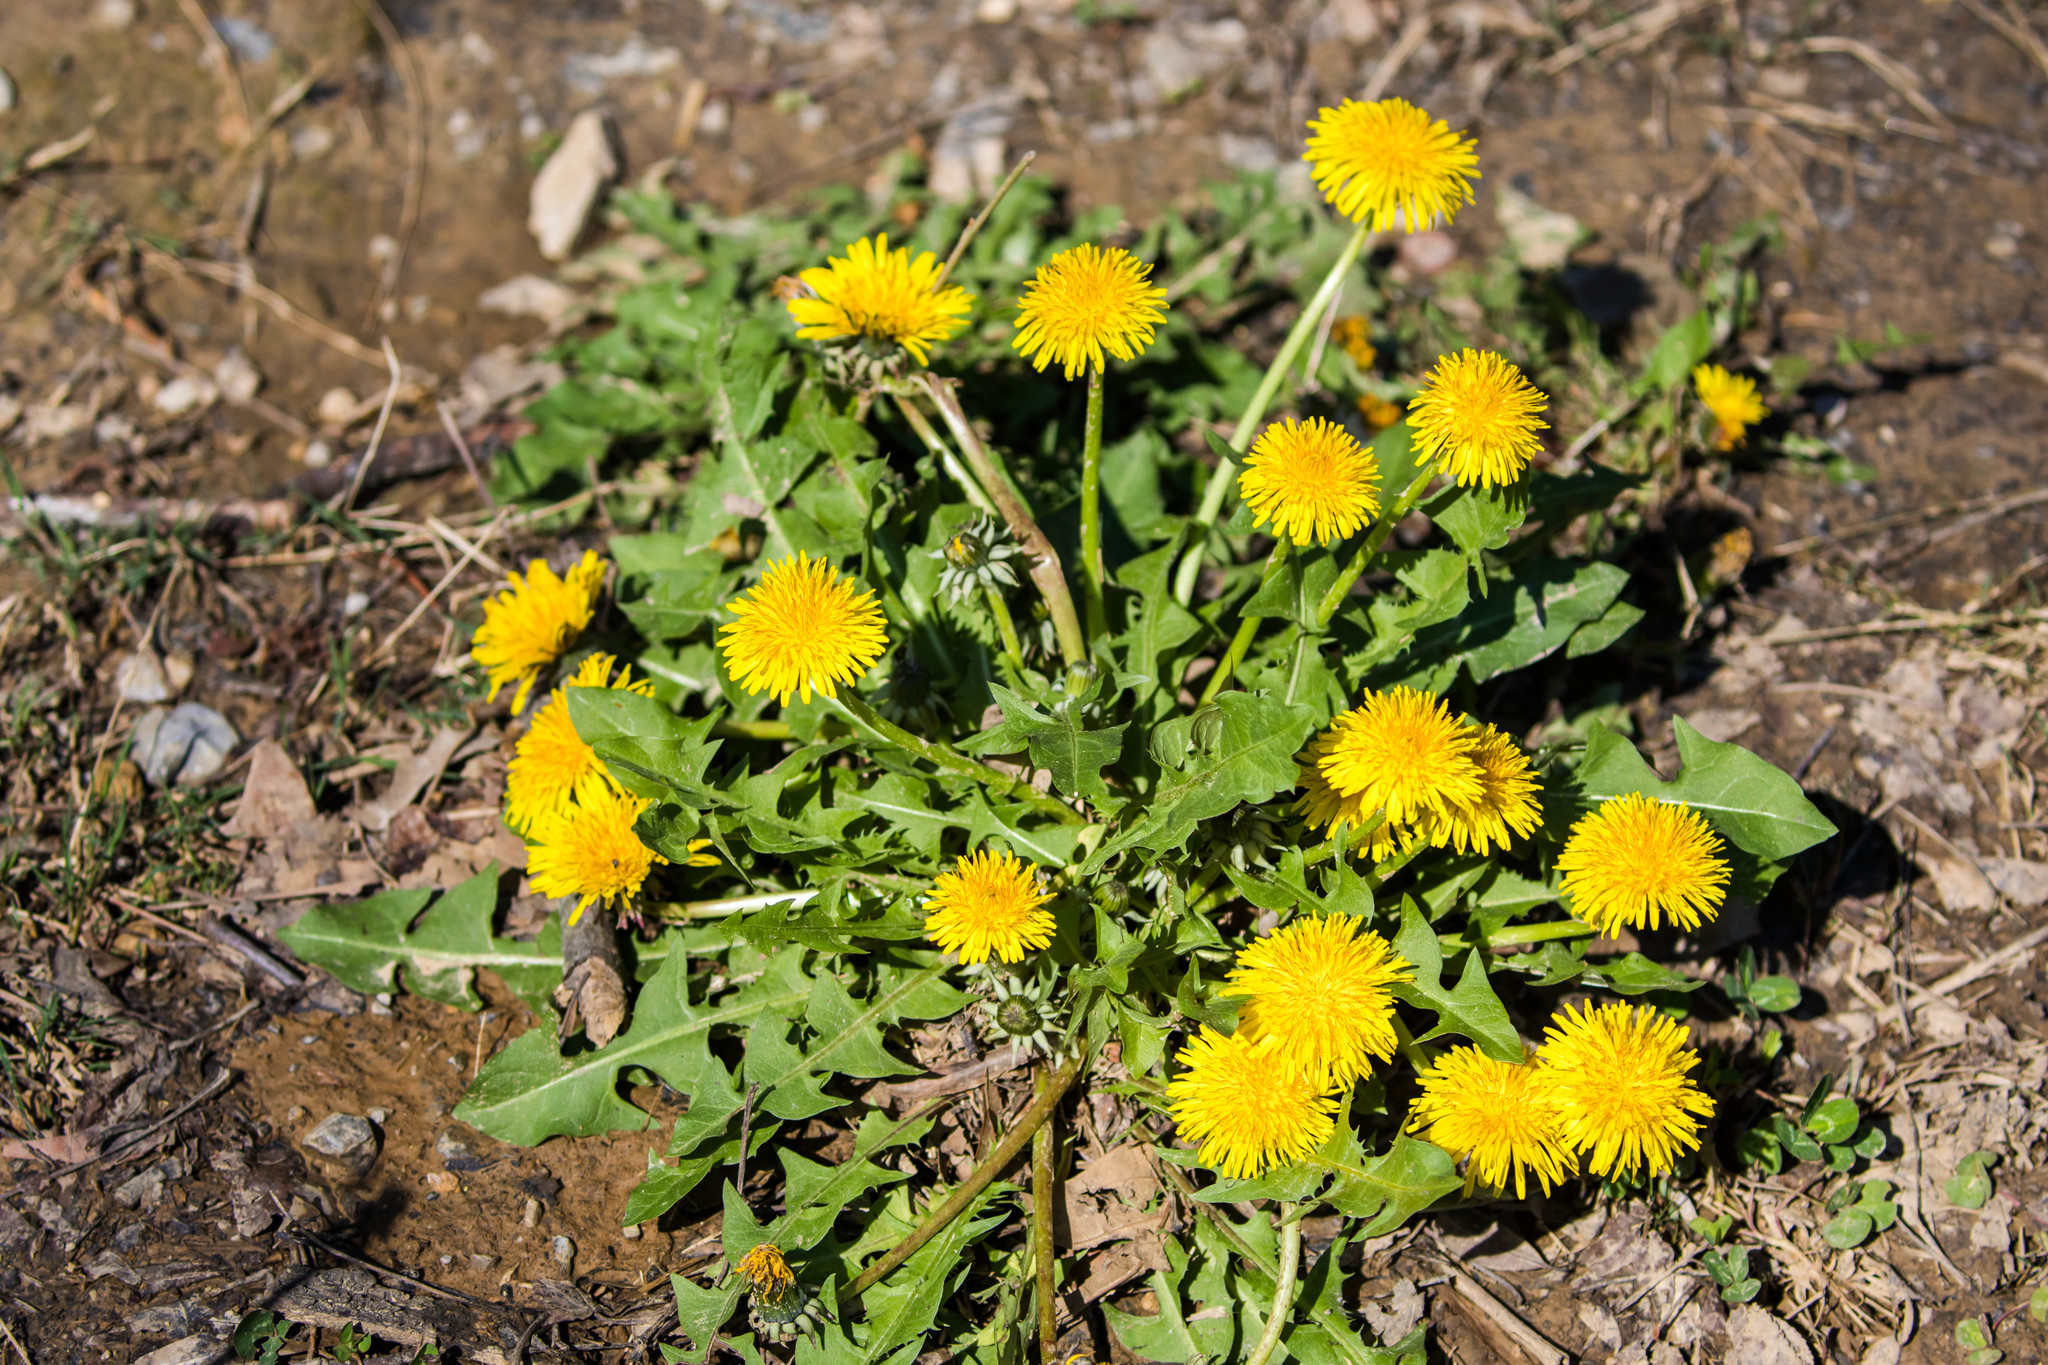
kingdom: Plantae
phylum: Tracheophyta
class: Magnoliopsida
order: Asterales
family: Asteraceae
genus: Taraxacum
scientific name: Taraxacum officinale
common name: Common dandelion
